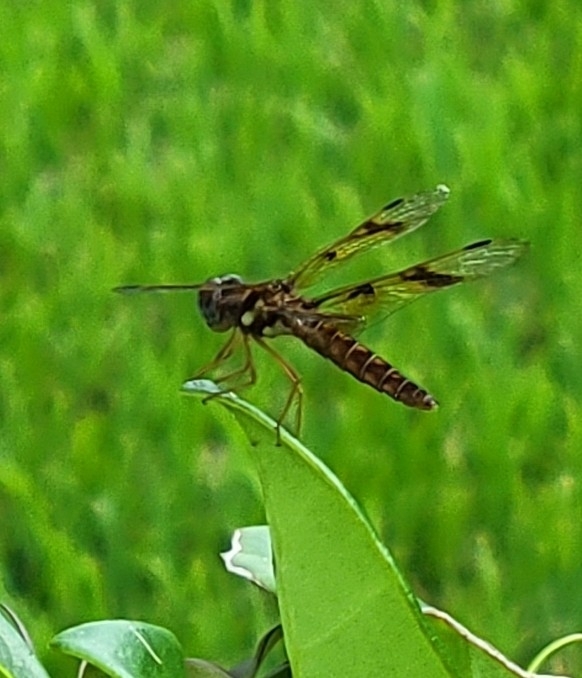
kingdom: Animalia
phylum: Arthropoda
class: Insecta
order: Odonata
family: Libellulidae
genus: Perithemis
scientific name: Perithemis tenera
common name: Eastern amberwing
